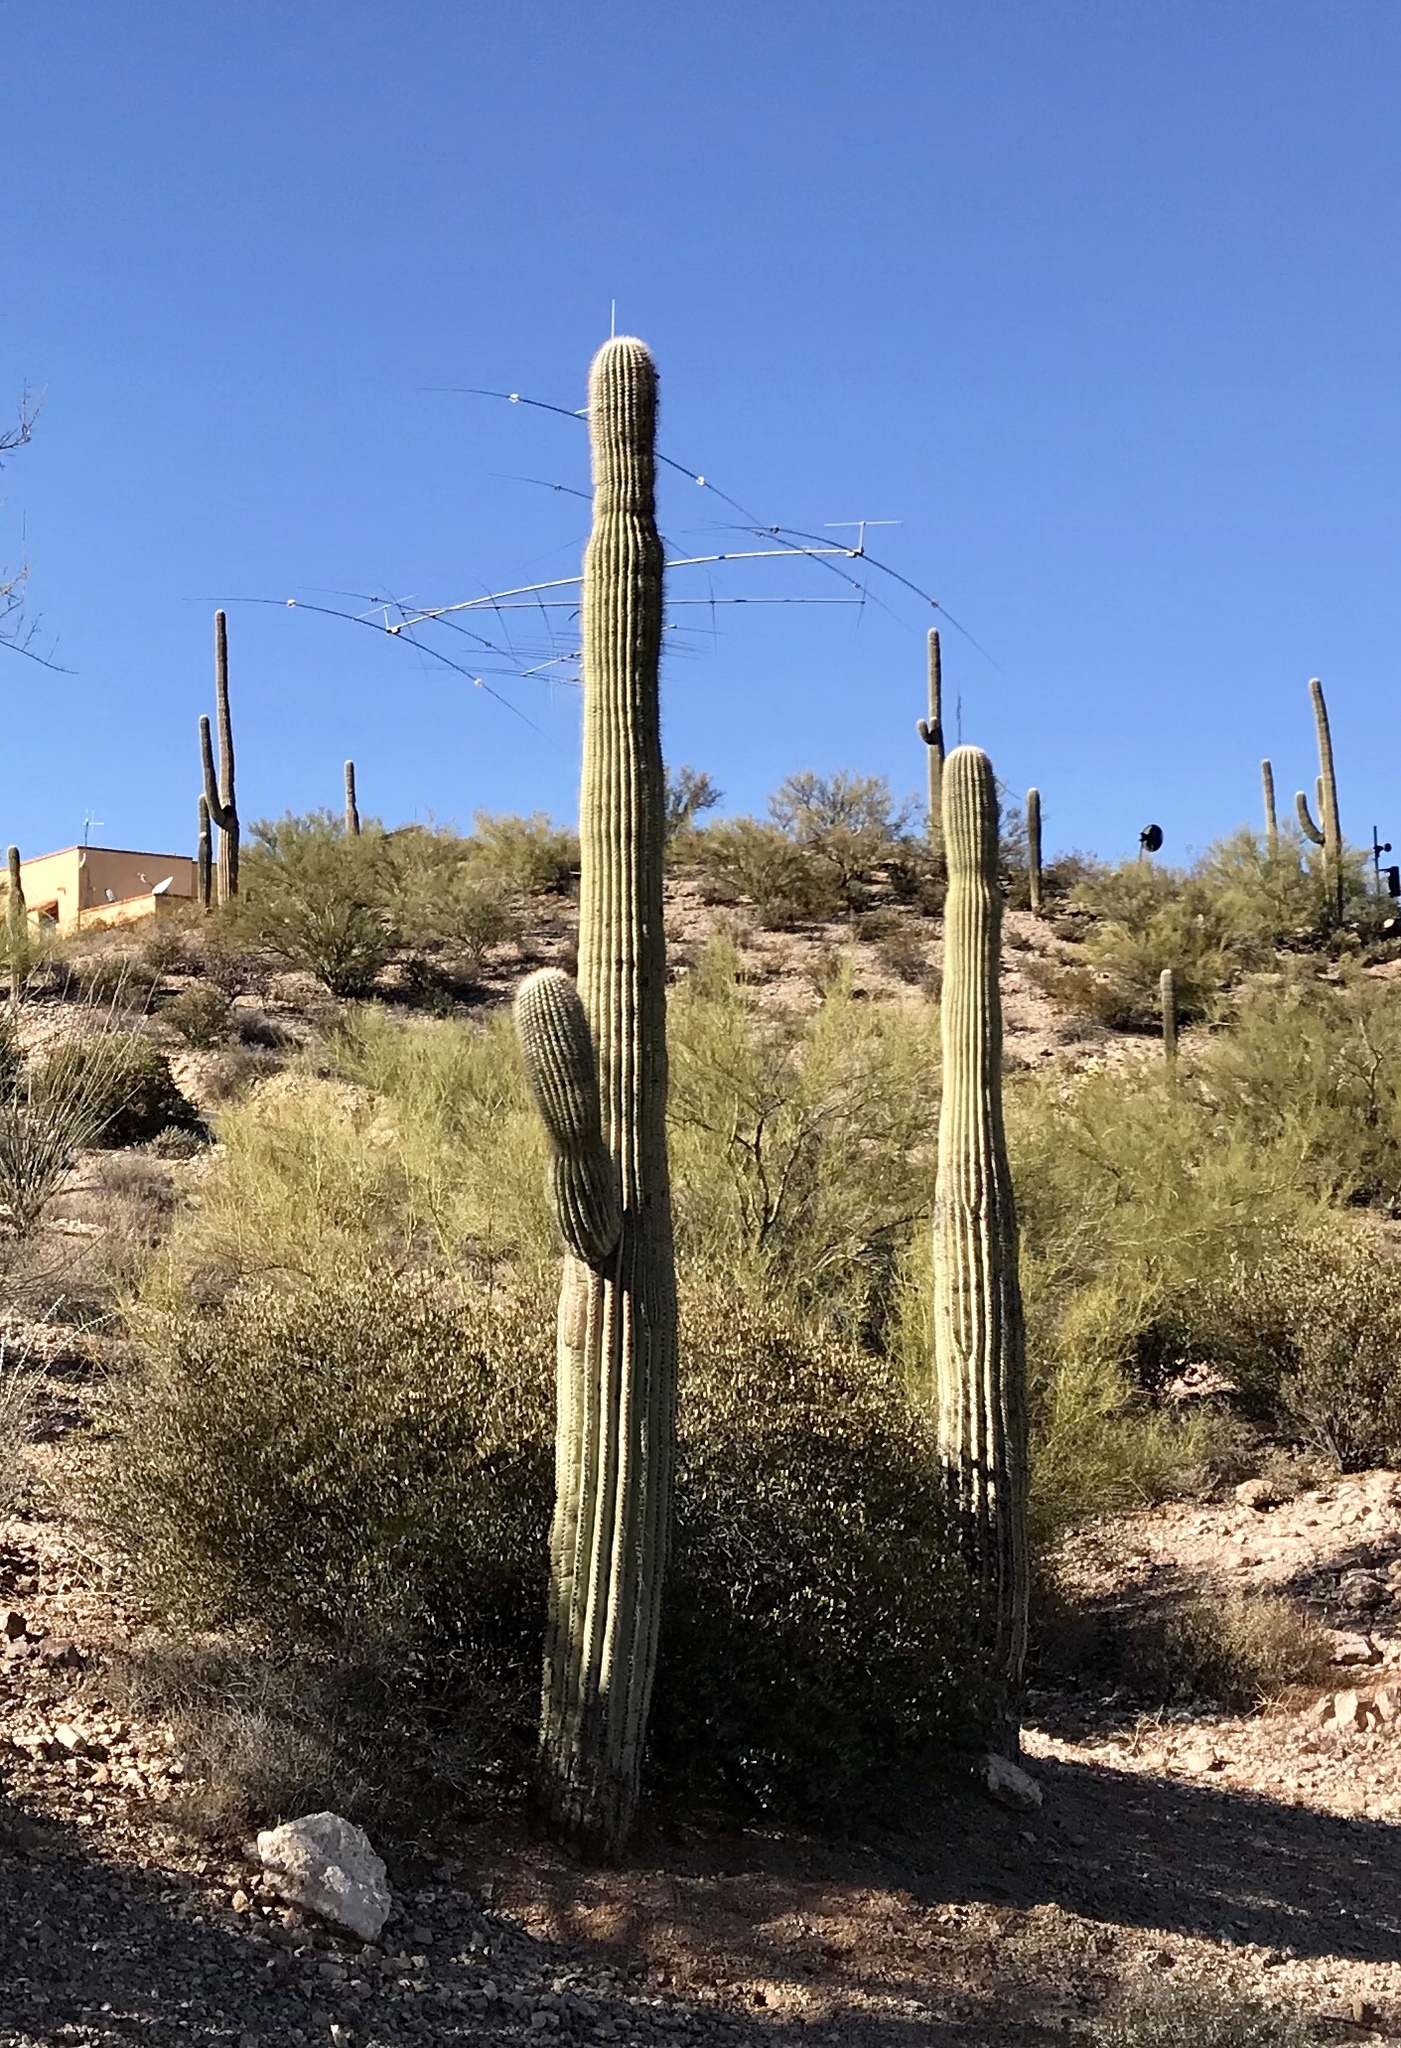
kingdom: Plantae
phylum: Tracheophyta
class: Magnoliopsida
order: Caryophyllales
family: Cactaceae
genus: Carnegiea
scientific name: Carnegiea gigantea
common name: Saguaro
